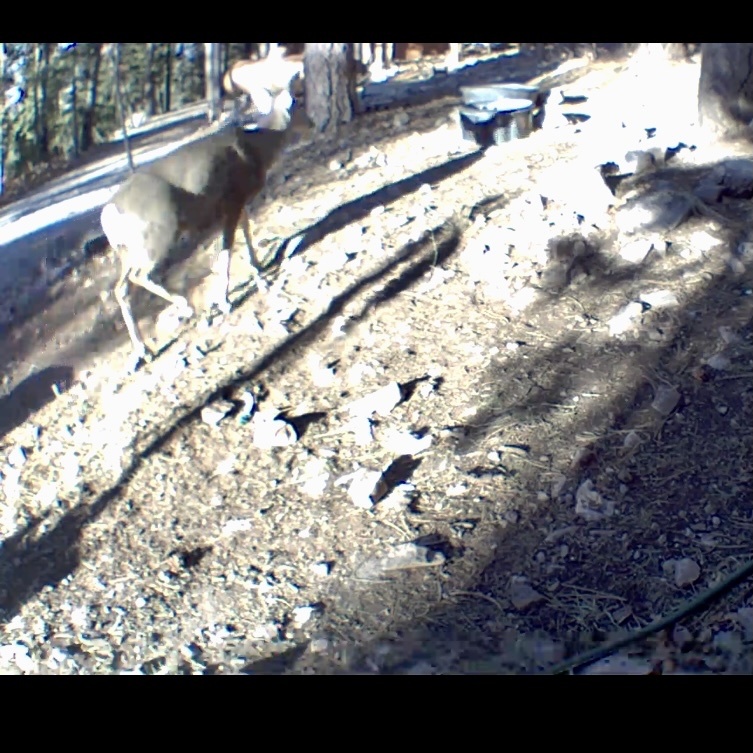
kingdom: Animalia
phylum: Chordata
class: Mammalia
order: Artiodactyla
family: Cervidae
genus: Odocoileus
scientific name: Odocoileus hemionus
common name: Mule deer
